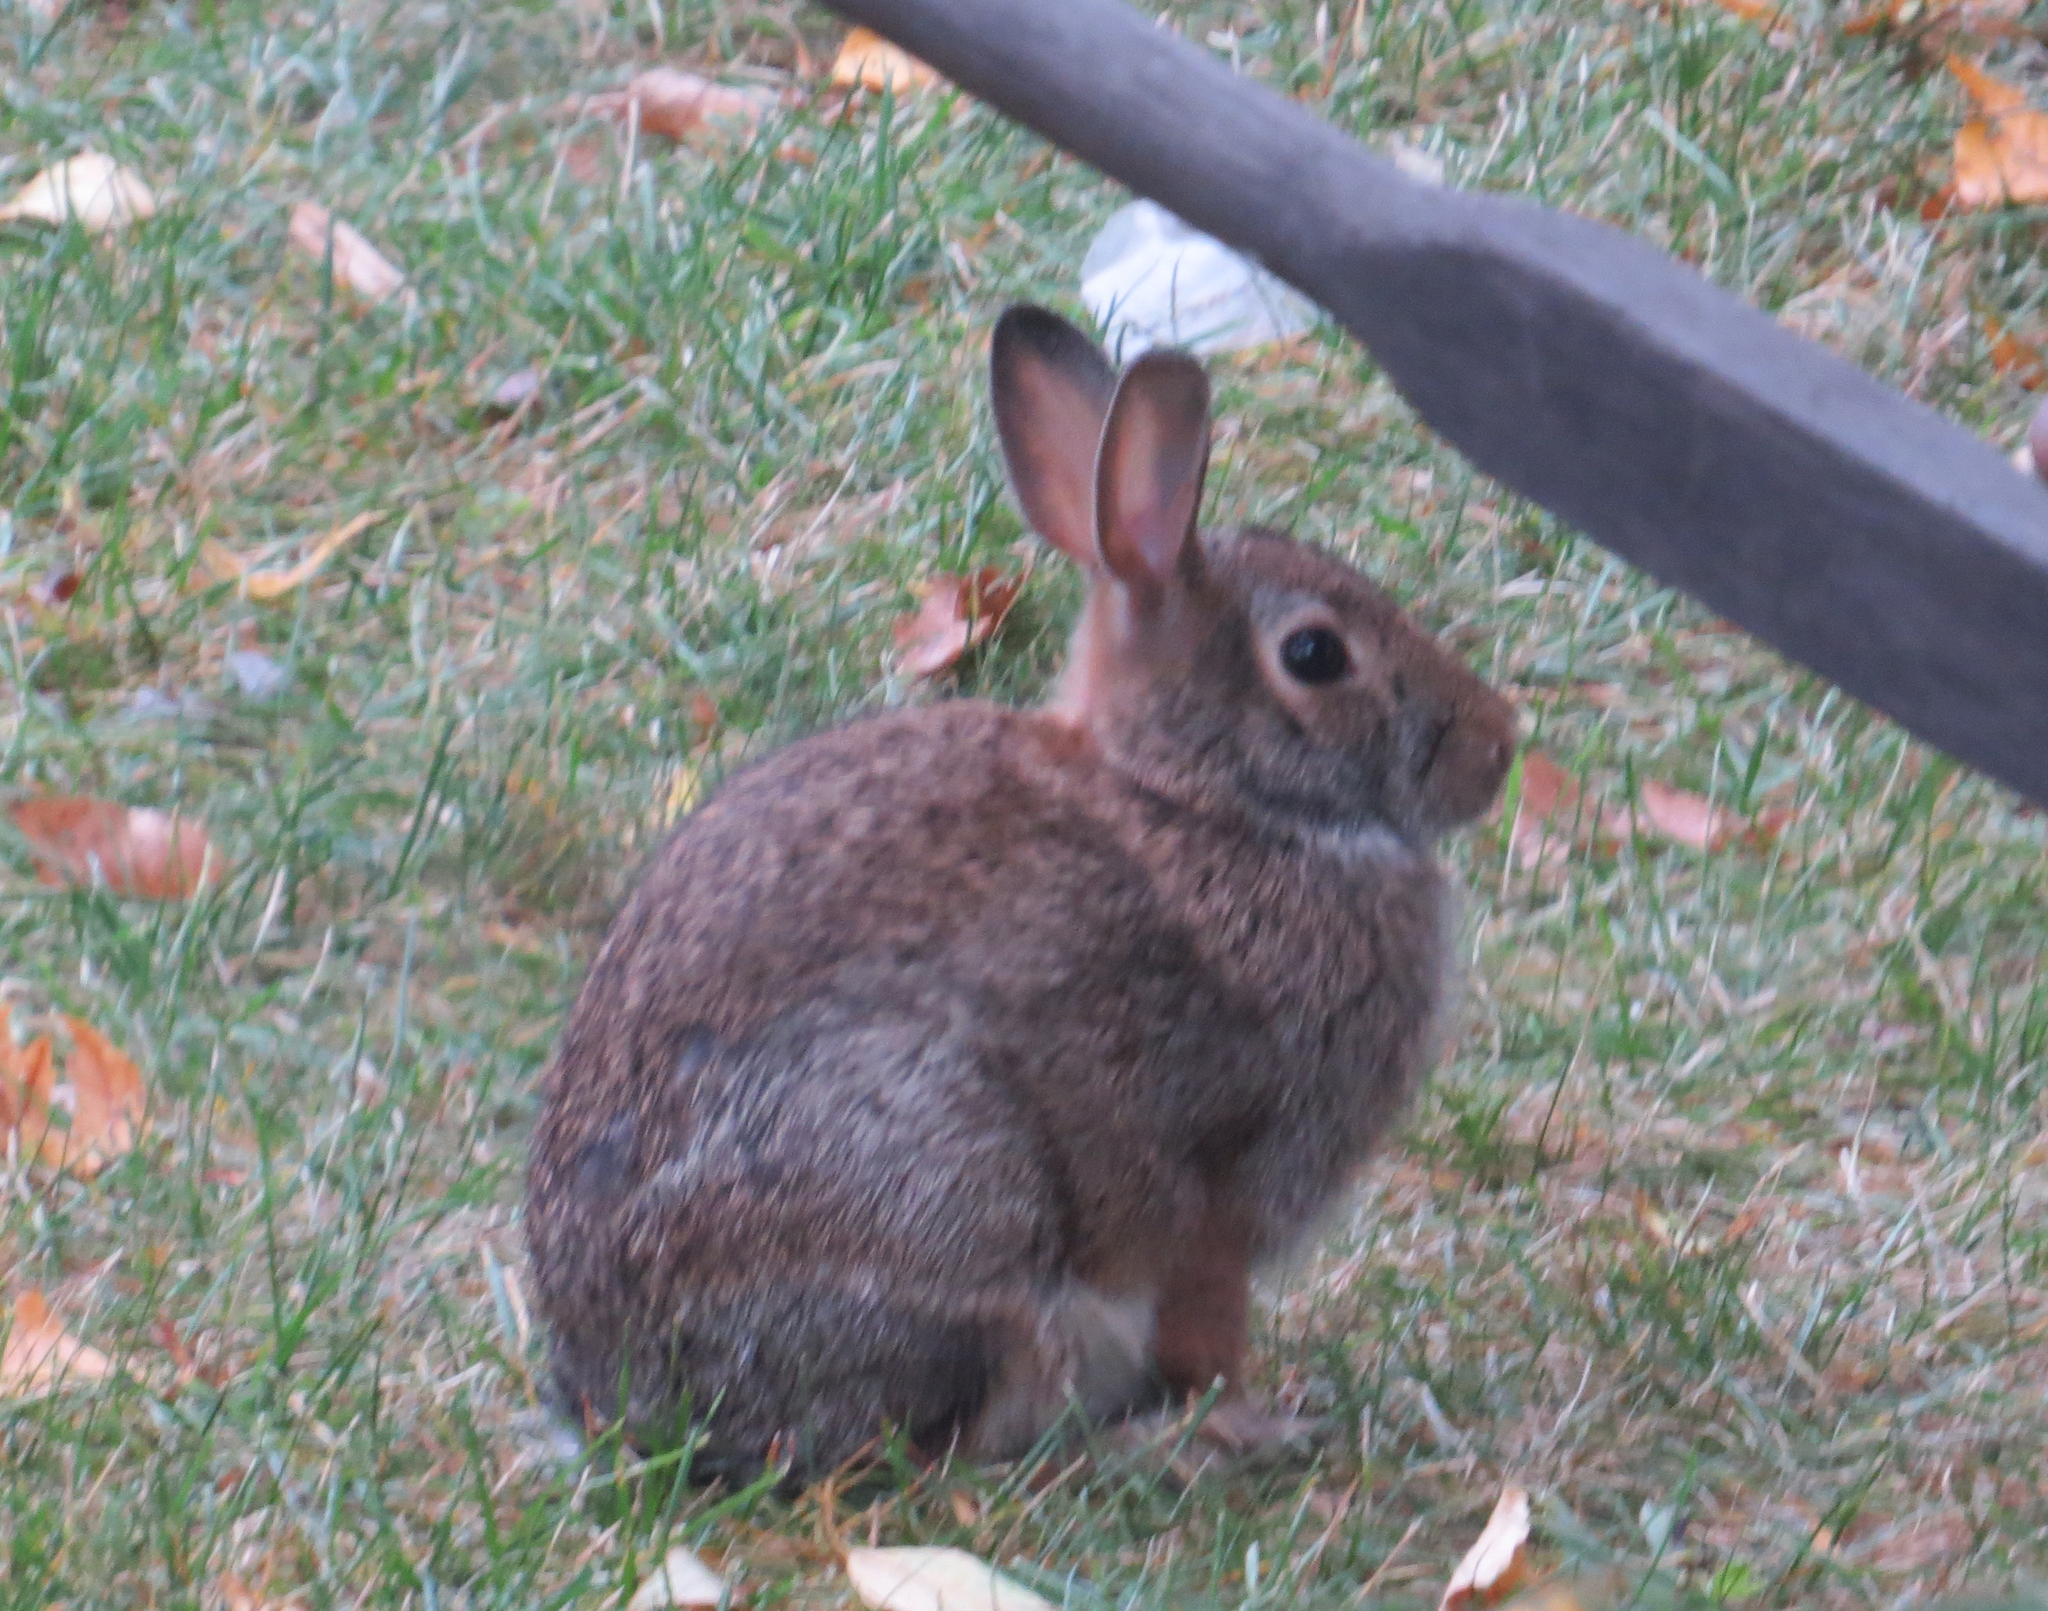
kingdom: Animalia
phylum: Chordata
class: Mammalia
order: Lagomorpha
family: Leporidae
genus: Sylvilagus
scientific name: Sylvilagus floridanus
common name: Eastern cottontail
